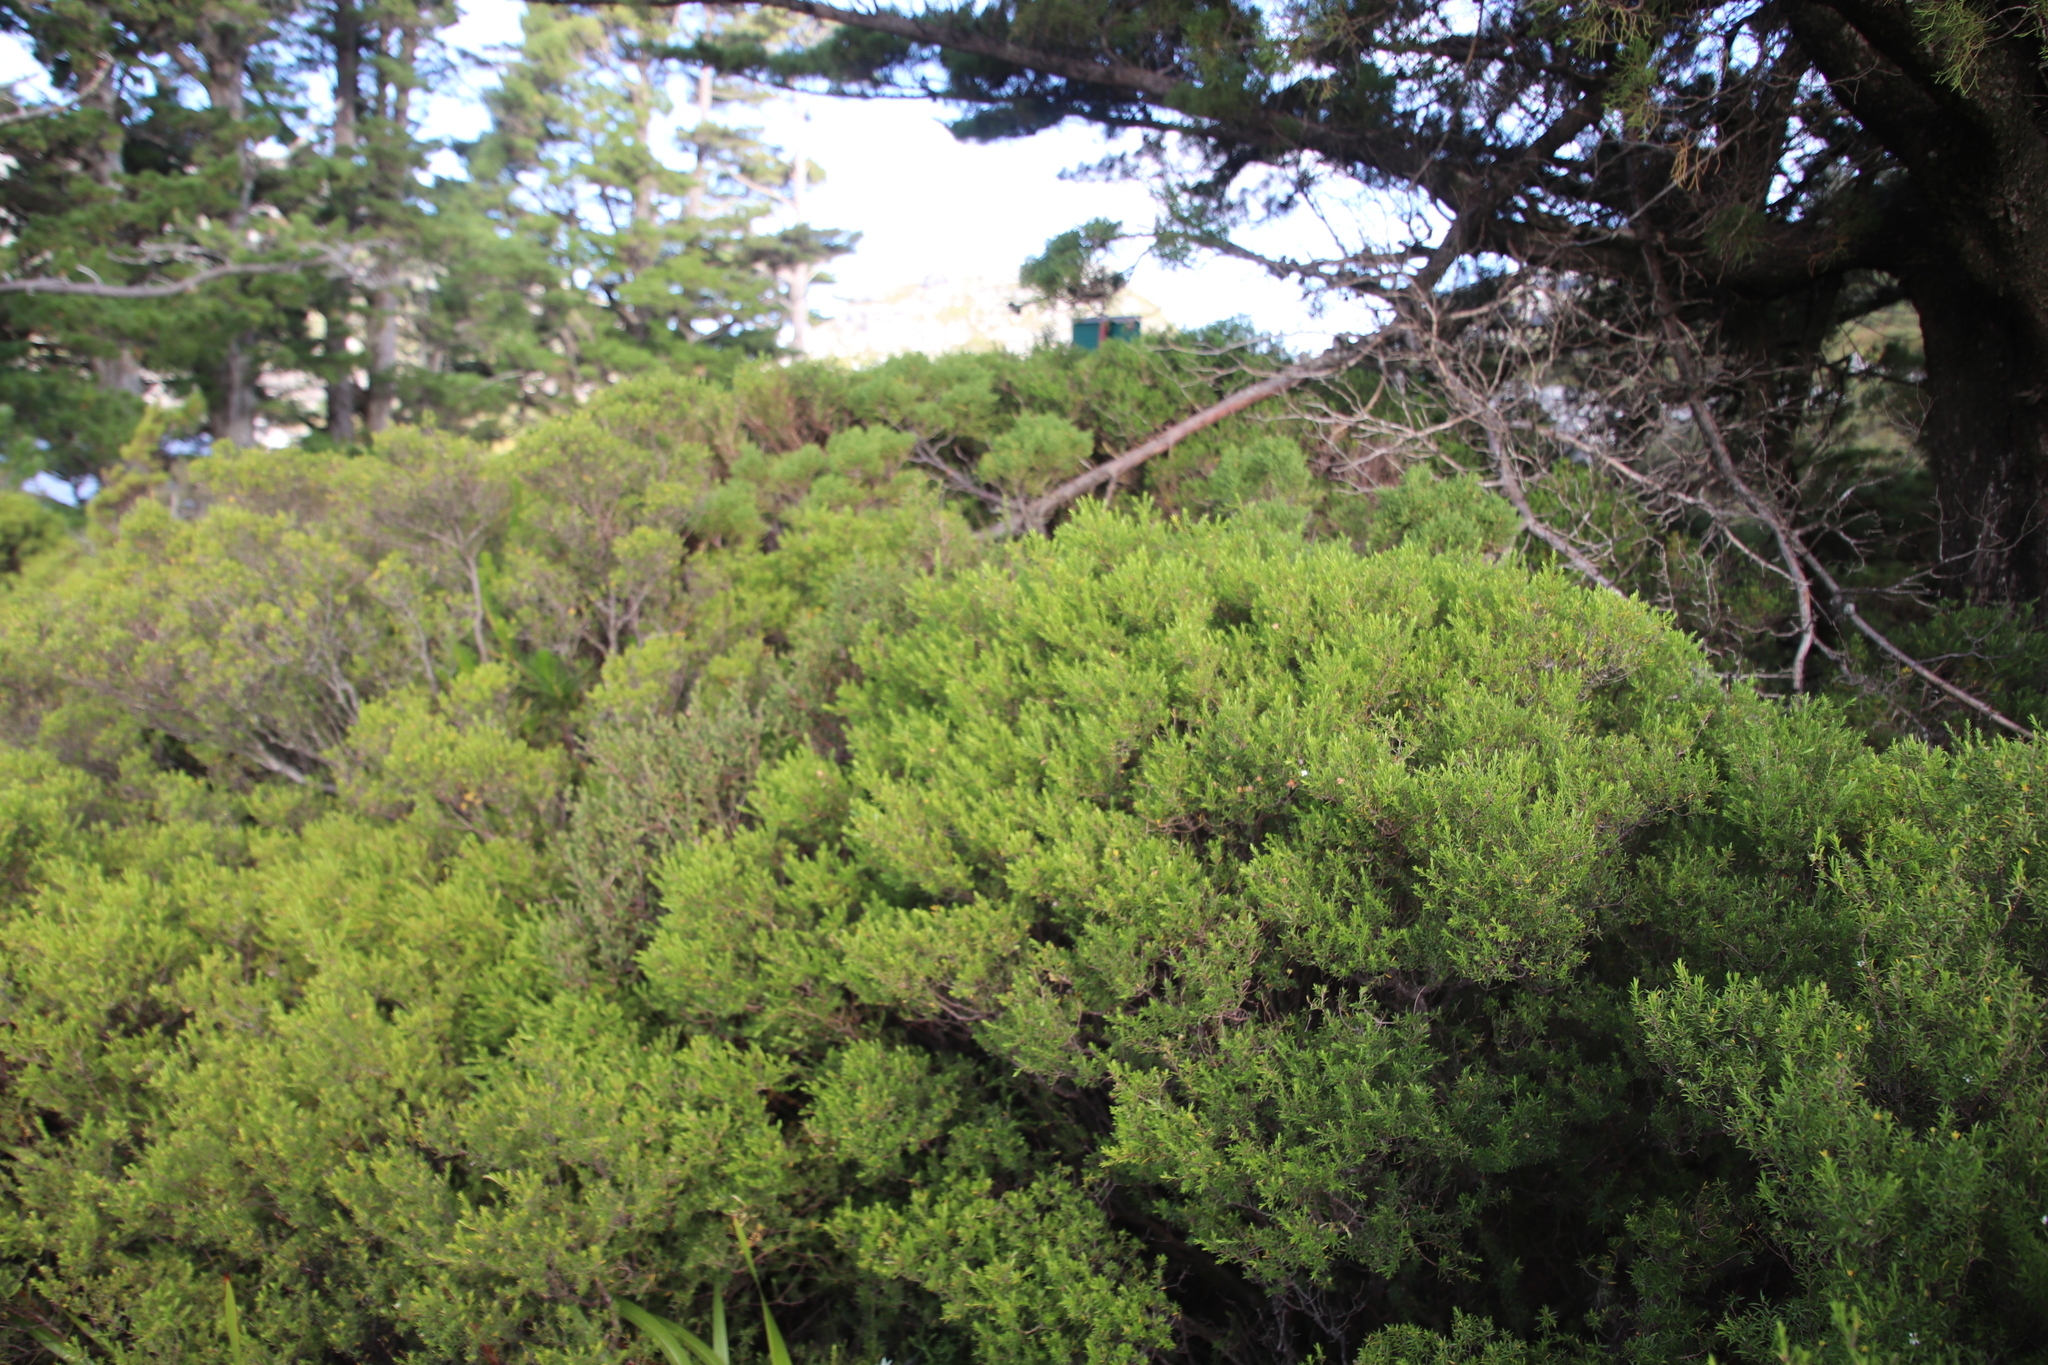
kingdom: Plantae
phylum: Tracheophyta
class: Magnoliopsida
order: Sapindales
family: Rutaceae
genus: Coleonema
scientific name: Coleonema album
